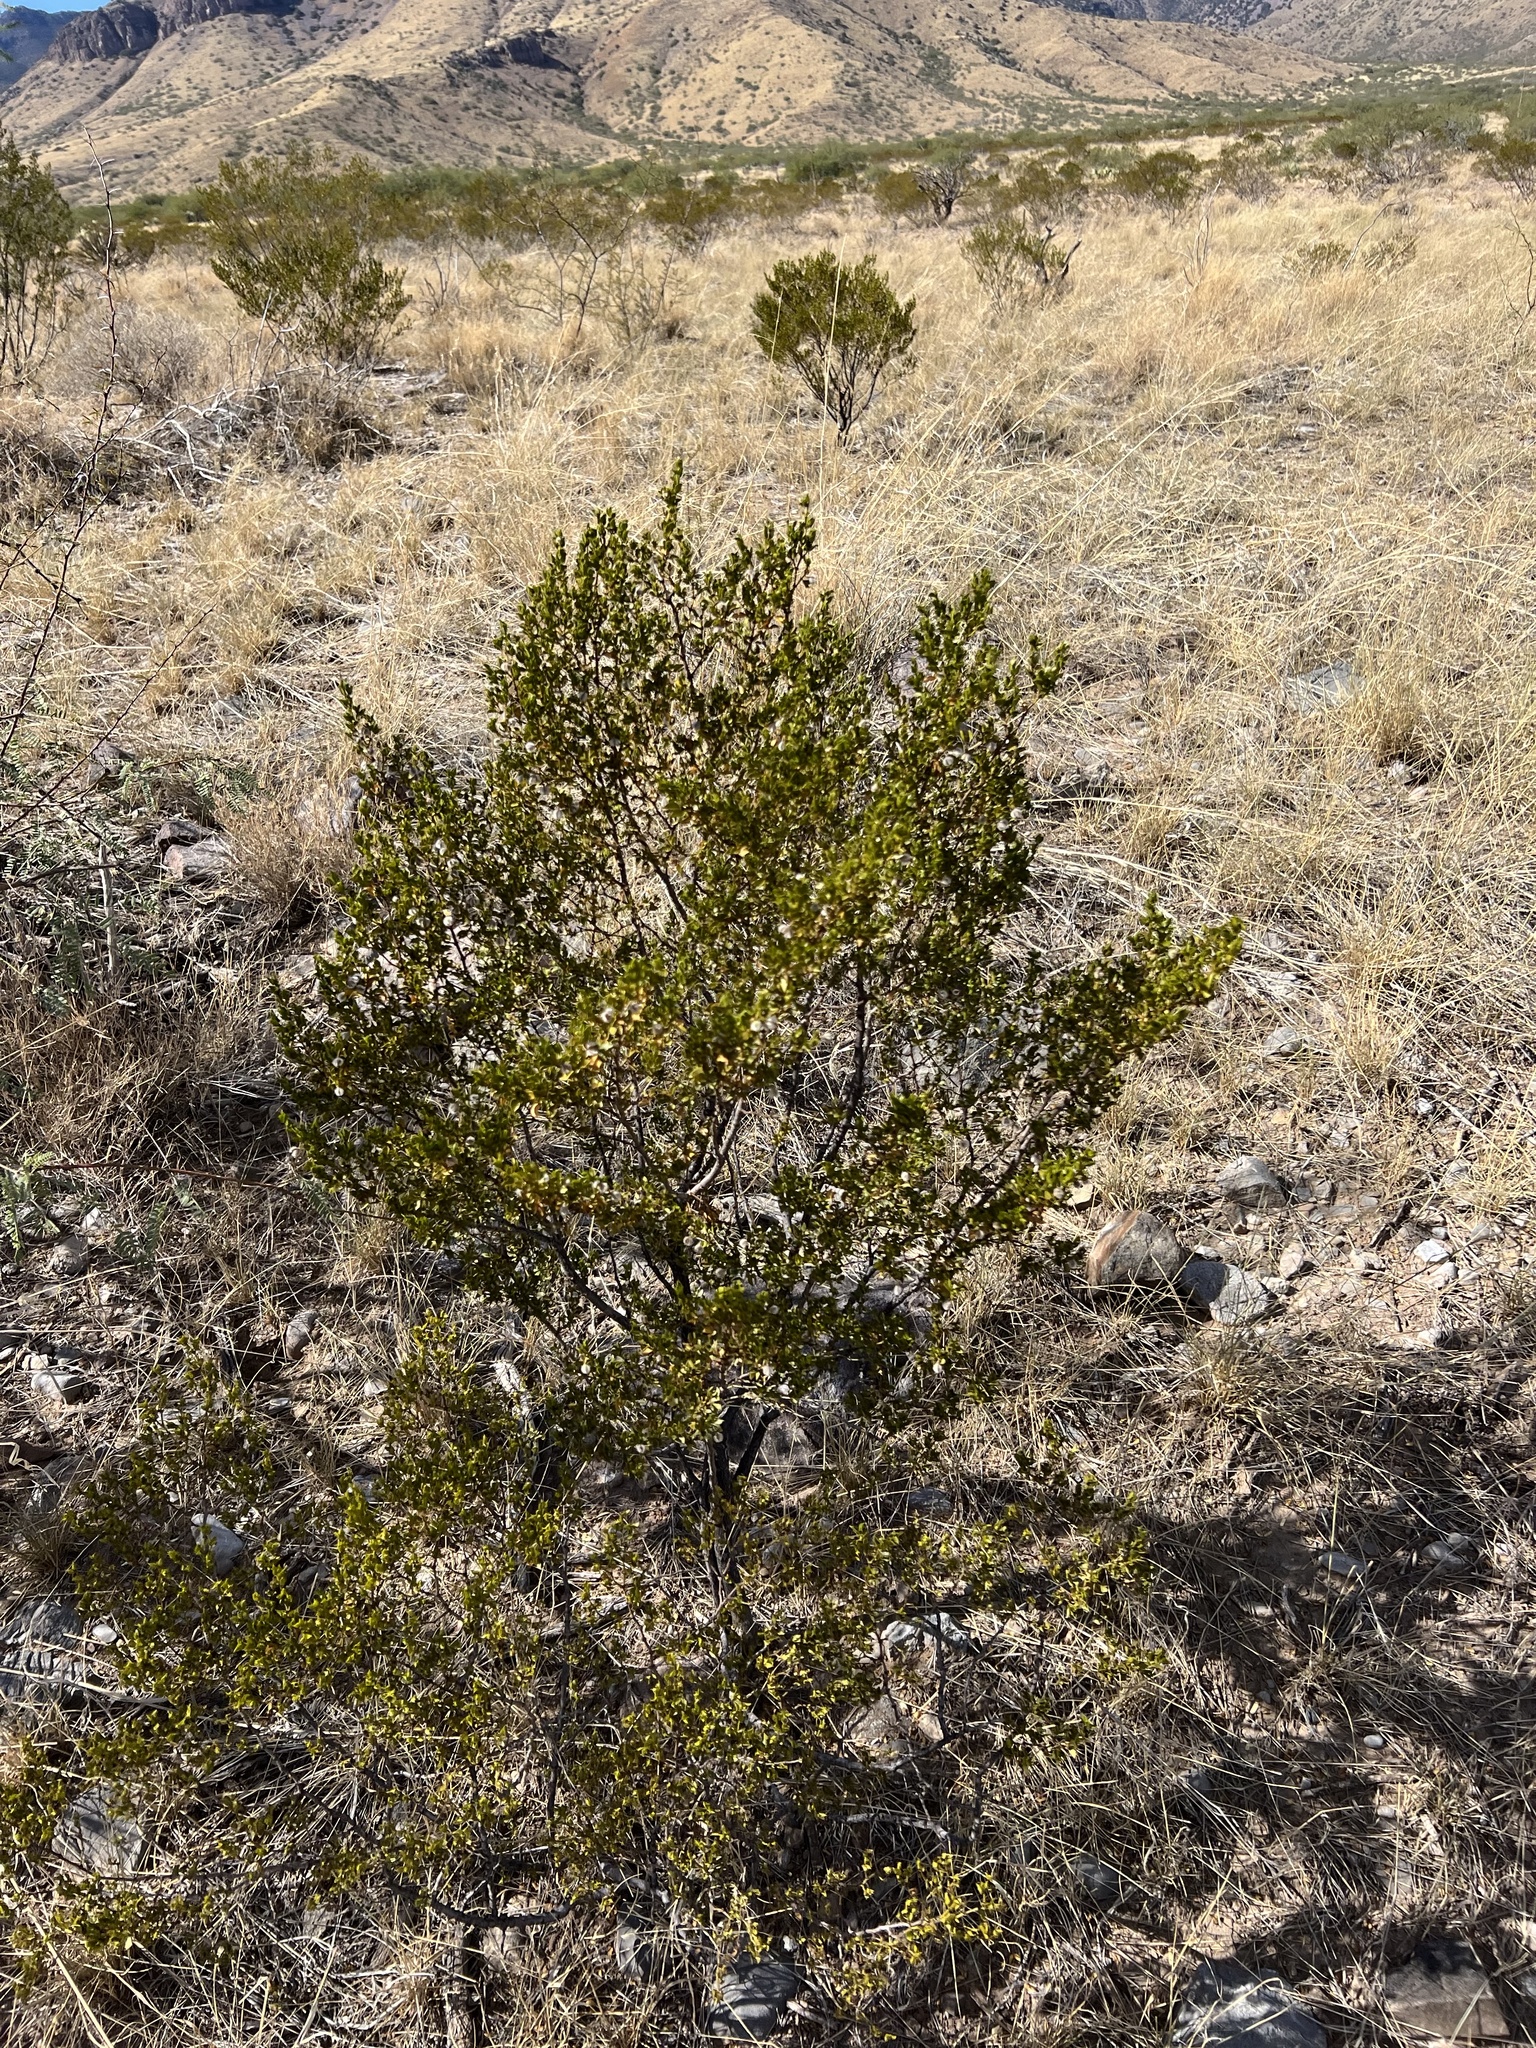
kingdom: Plantae
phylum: Tracheophyta
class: Magnoliopsida
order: Zygophyllales
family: Zygophyllaceae
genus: Larrea
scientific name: Larrea tridentata
